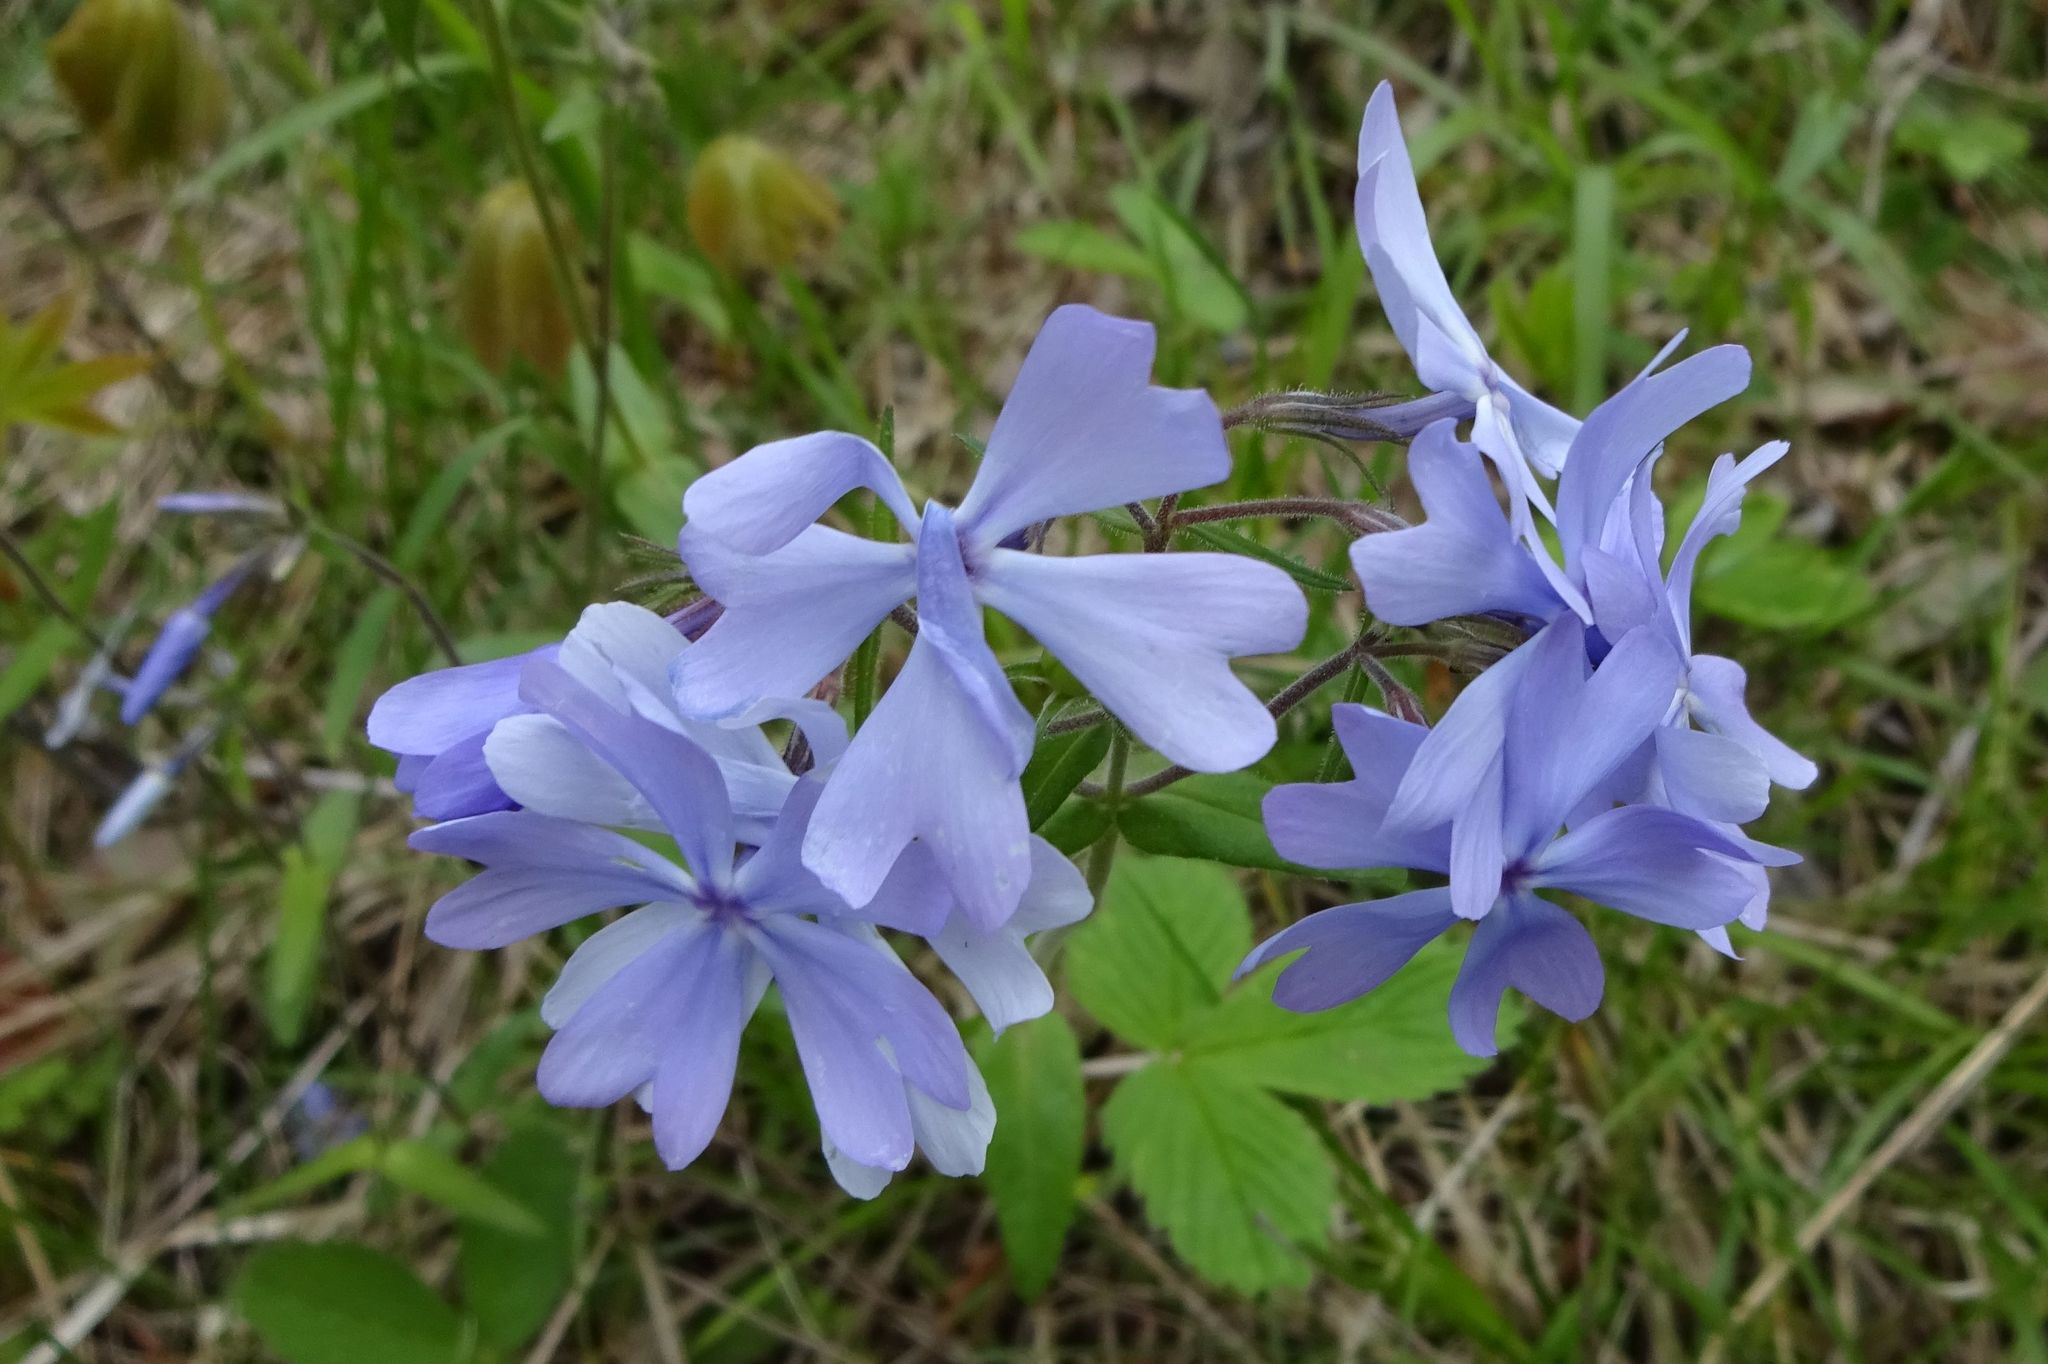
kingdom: Plantae
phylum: Tracheophyta
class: Magnoliopsida
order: Ericales
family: Polemoniaceae
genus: Phlox
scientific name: Phlox divaricata
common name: Blue phlox
